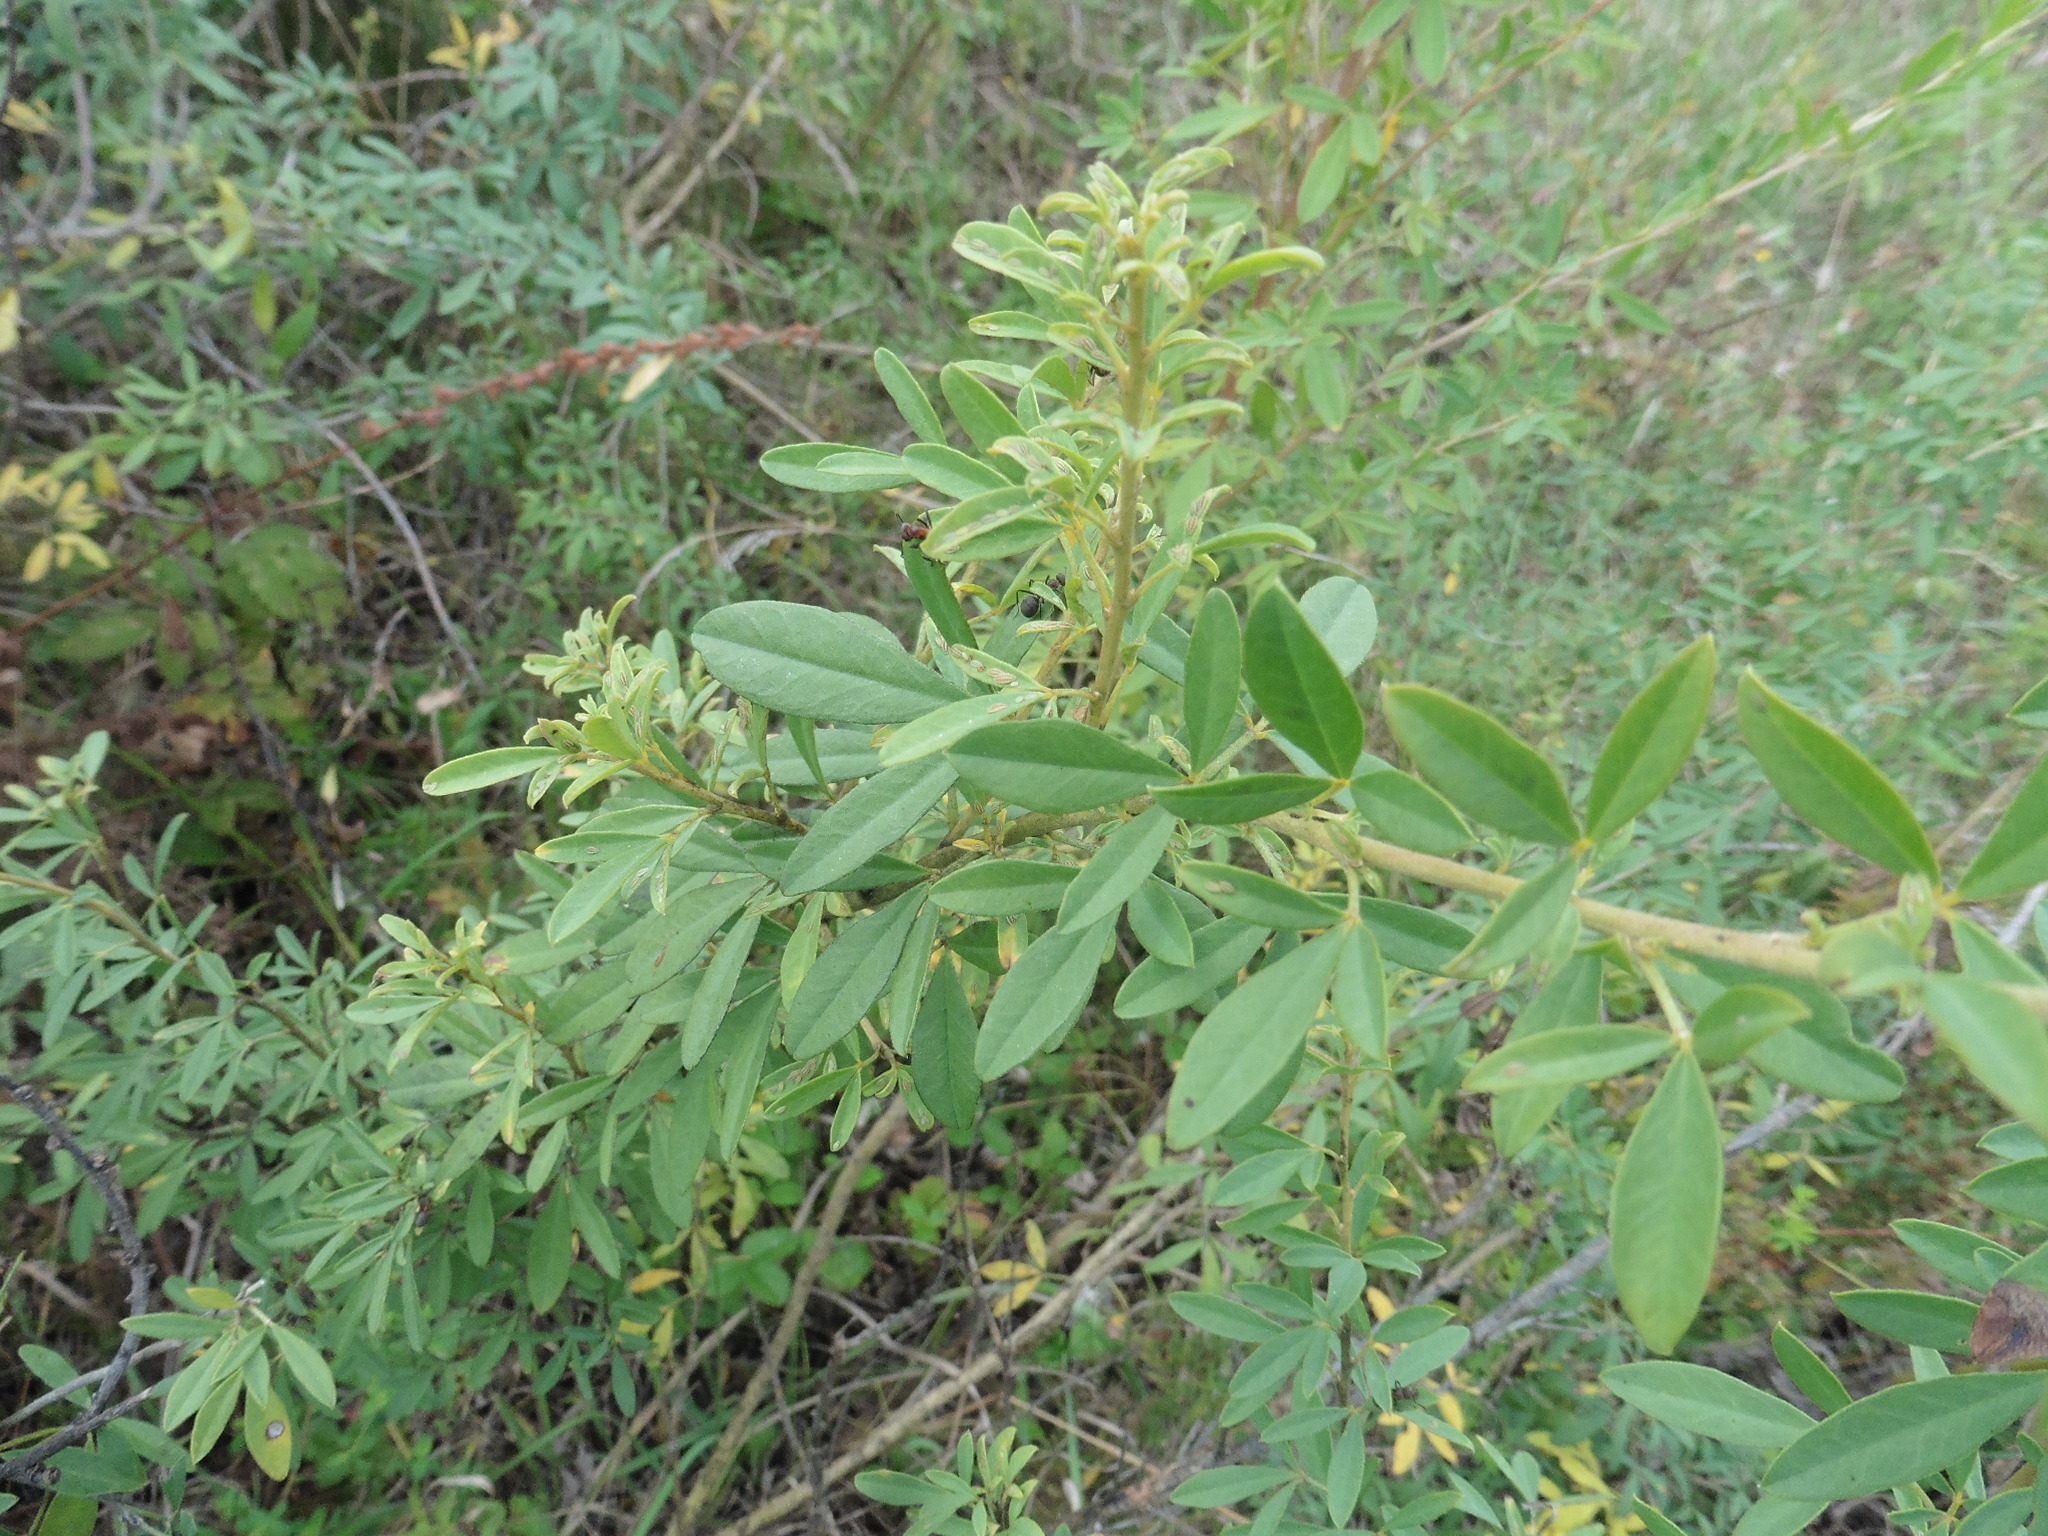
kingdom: Plantae
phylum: Tracheophyta
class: Magnoliopsida
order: Fabales
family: Fabaceae
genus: Chamaecytisus
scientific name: Chamaecytisus ruthenicus
